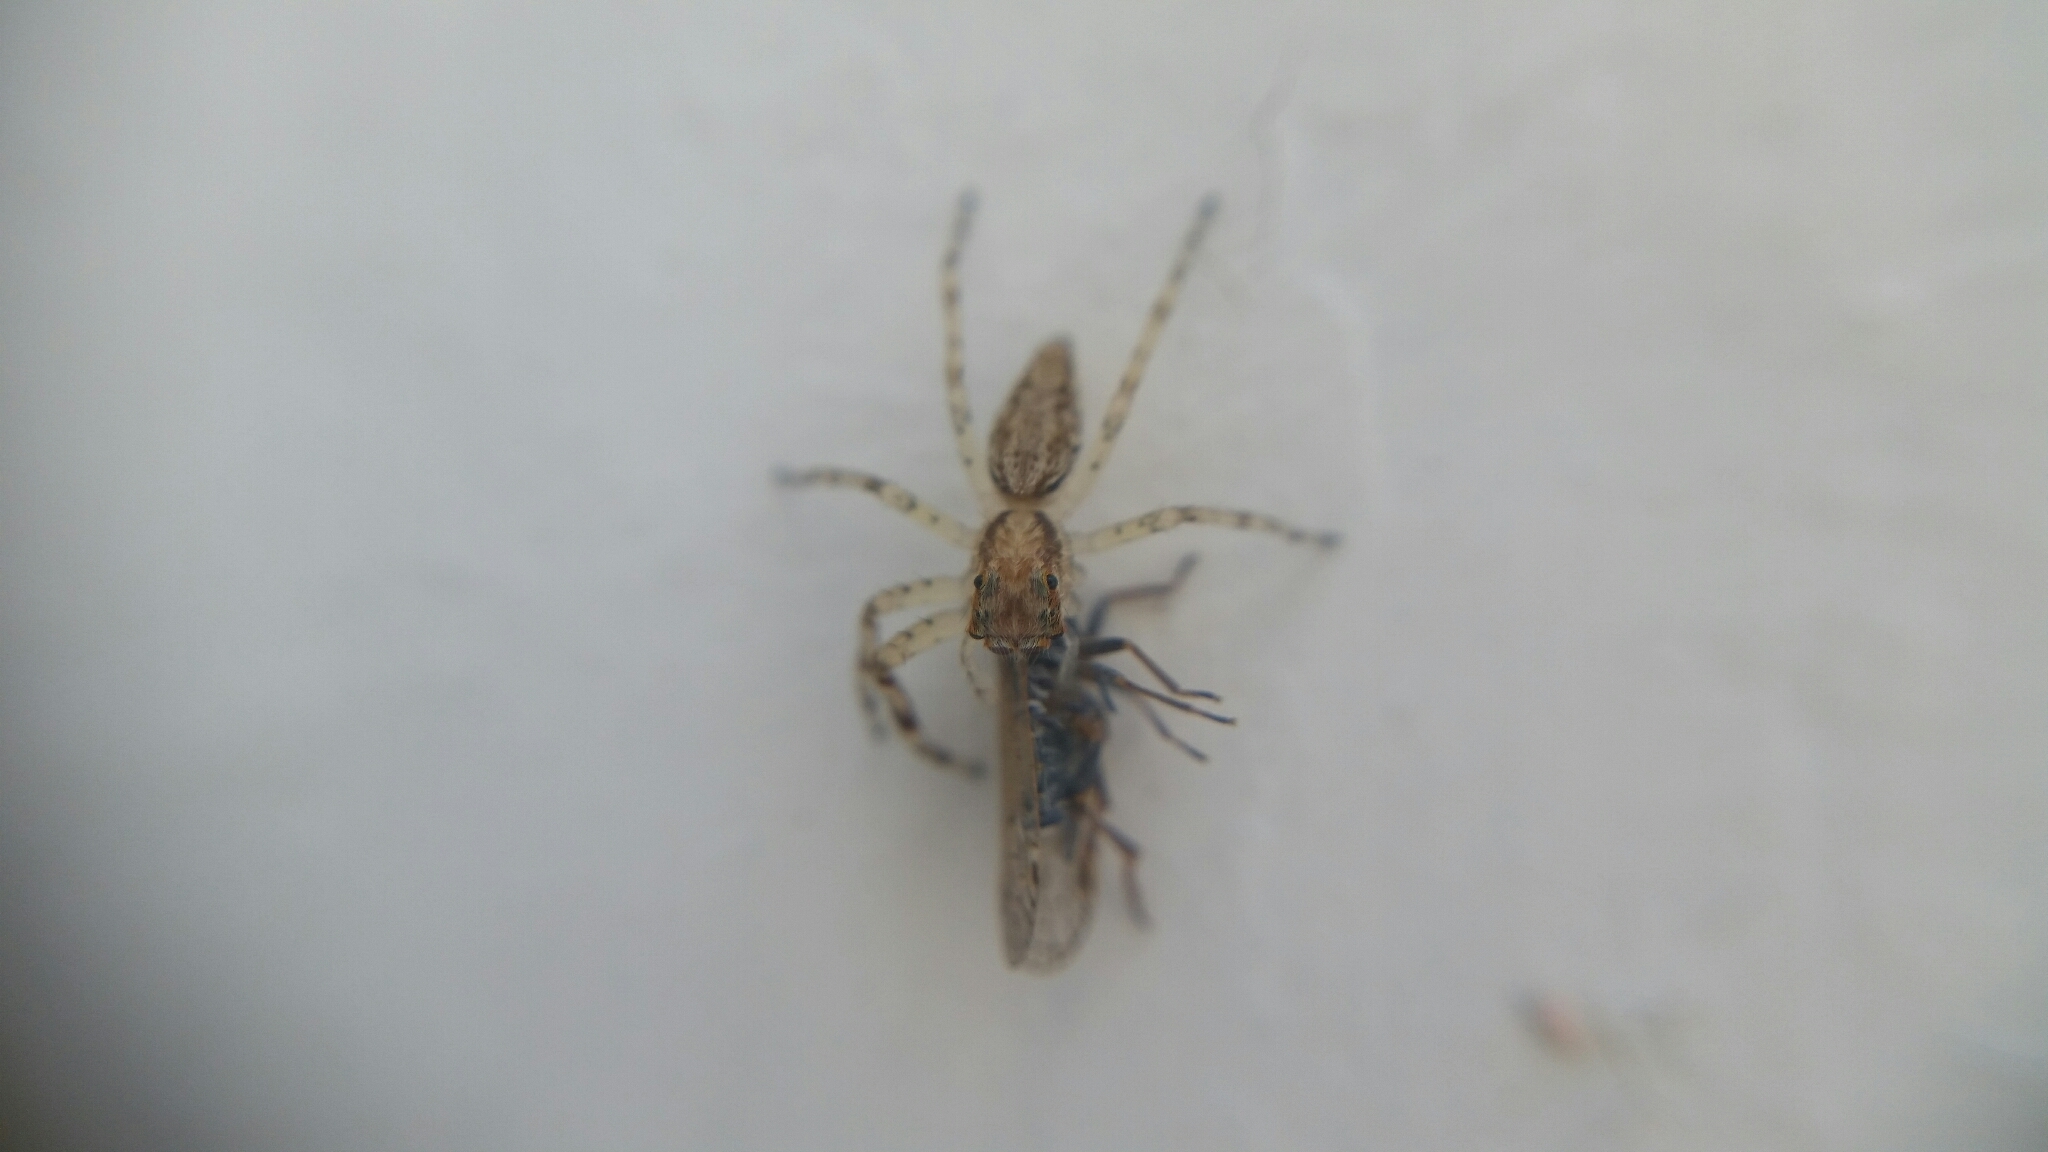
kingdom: Animalia
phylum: Arthropoda
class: Arachnida
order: Araneae
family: Salticidae
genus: Helpis
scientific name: Helpis minitabunda
